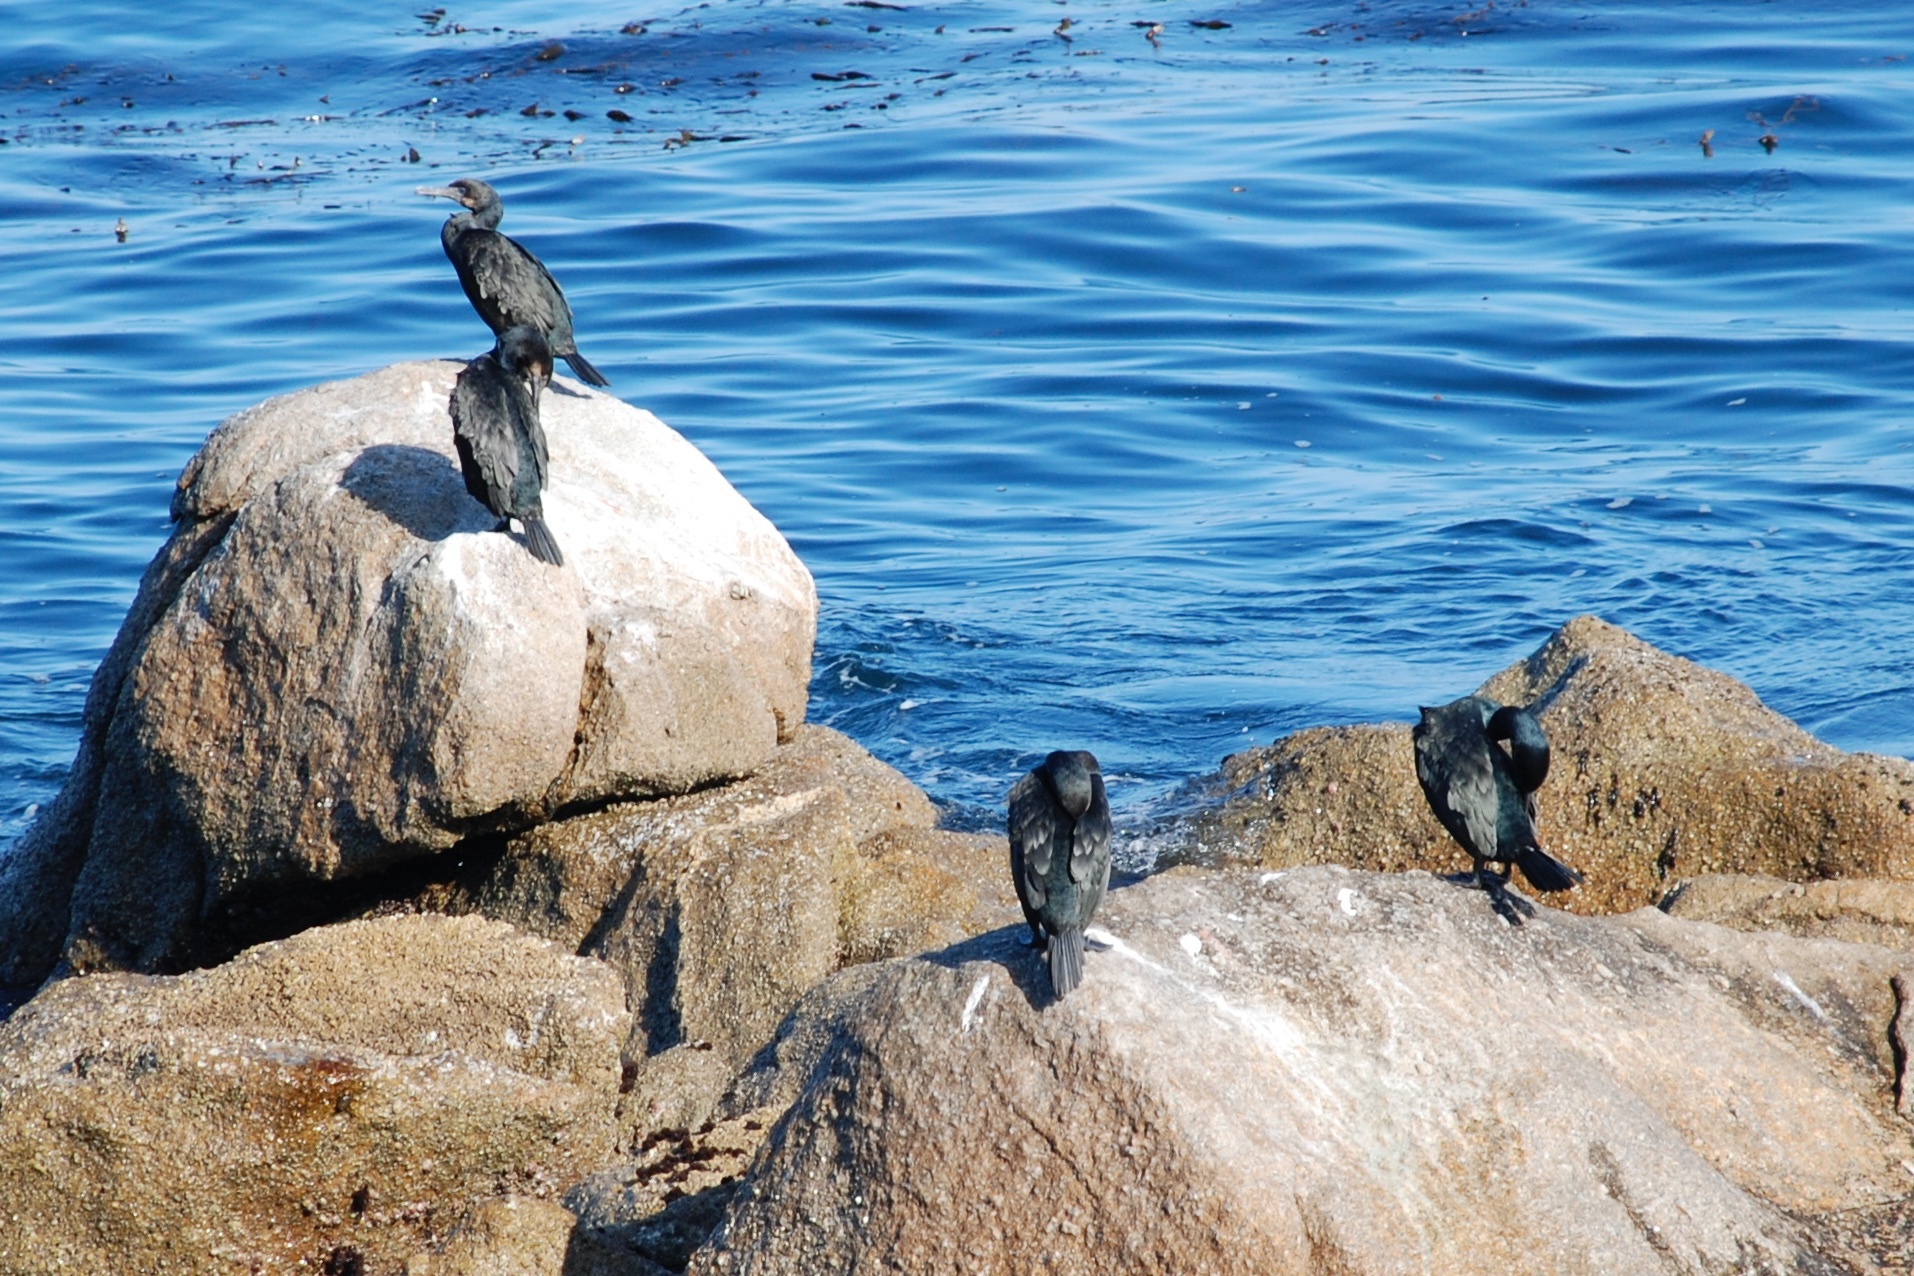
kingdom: Animalia
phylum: Chordata
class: Aves
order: Suliformes
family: Phalacrocoracidae
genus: Urile
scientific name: Urile penicillatus
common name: Brandt's cormorant
